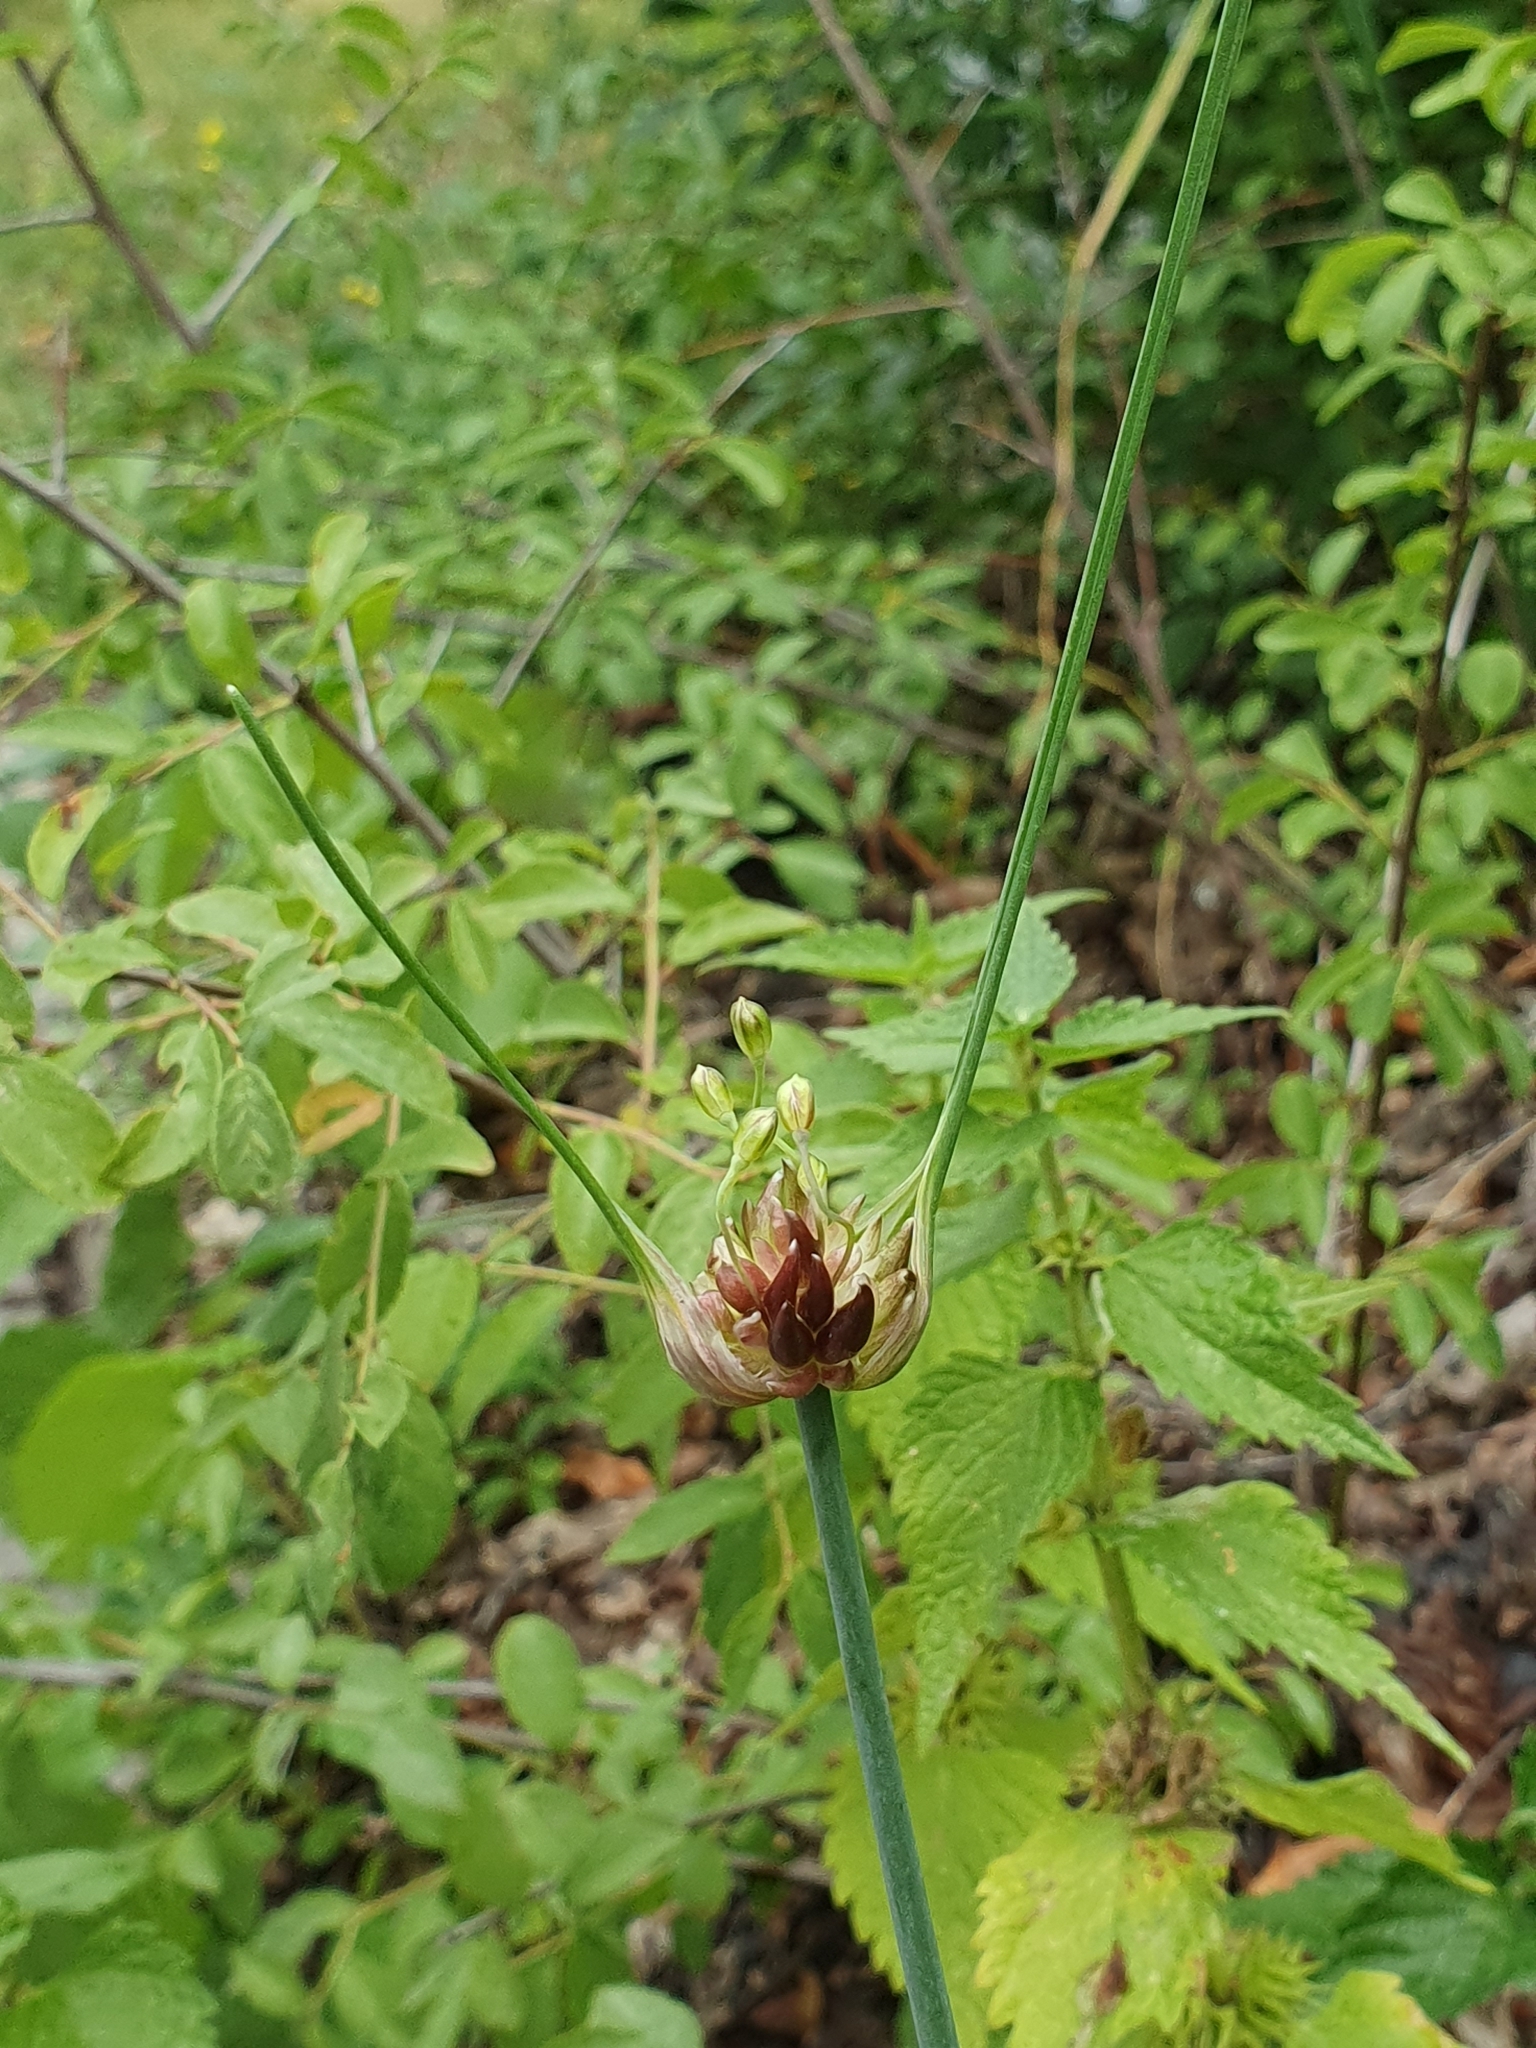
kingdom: Plantae
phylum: Tracheophyta
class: Liliopsida
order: Asparagales
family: Amaryllidaceae
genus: Allium
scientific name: Allium oleraceum
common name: Field garlic
